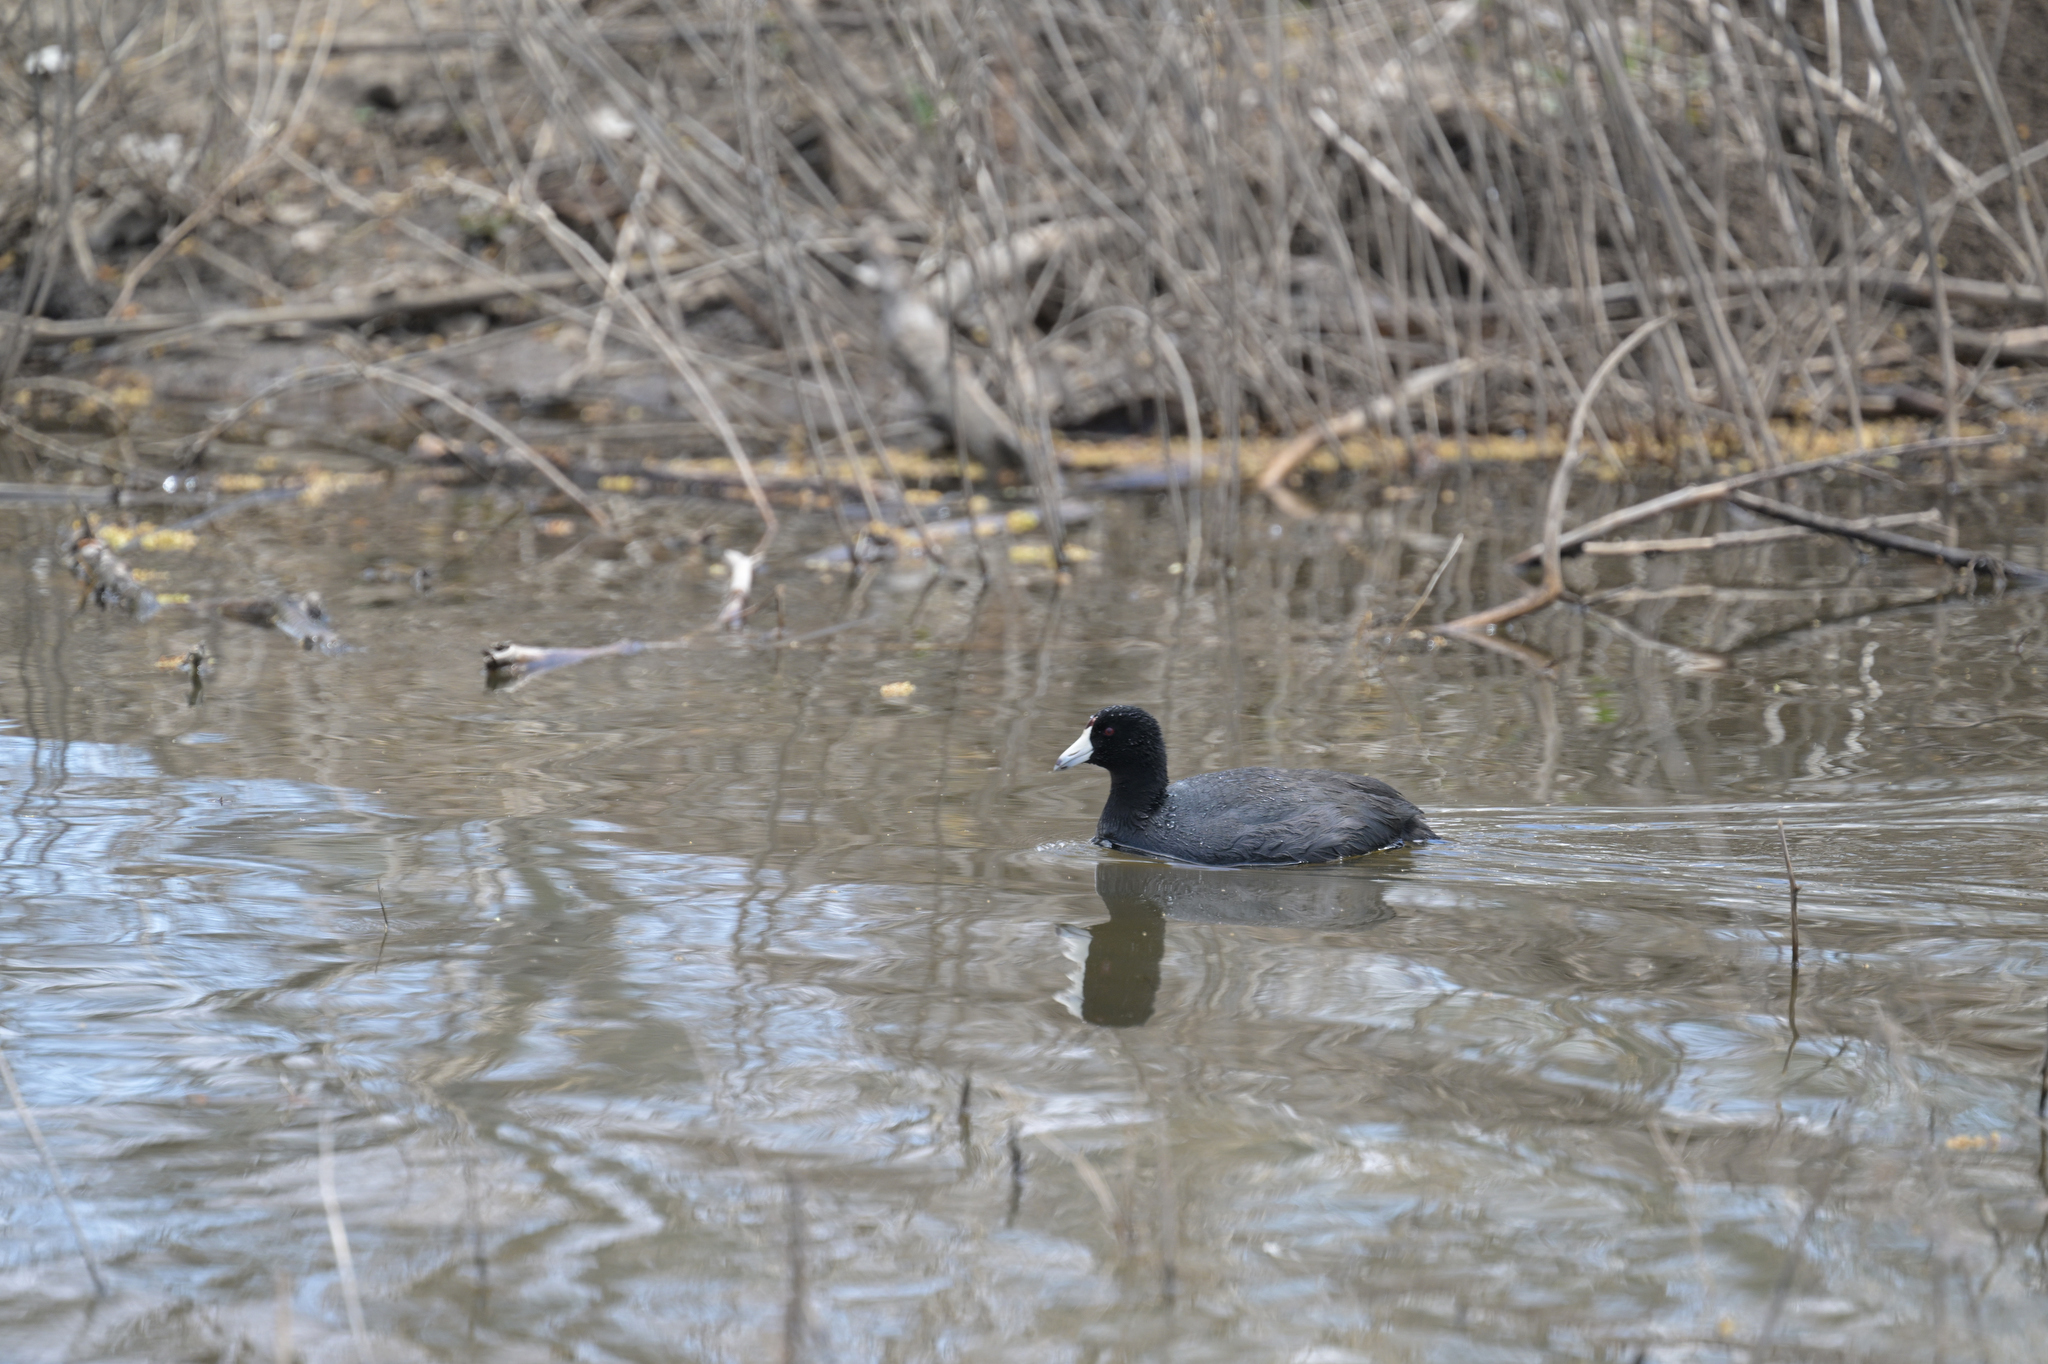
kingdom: Animalia
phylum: Chordata
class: Aves
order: Gruiformes
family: Rallidae
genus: Fulica
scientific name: Fulica americana
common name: American coot
